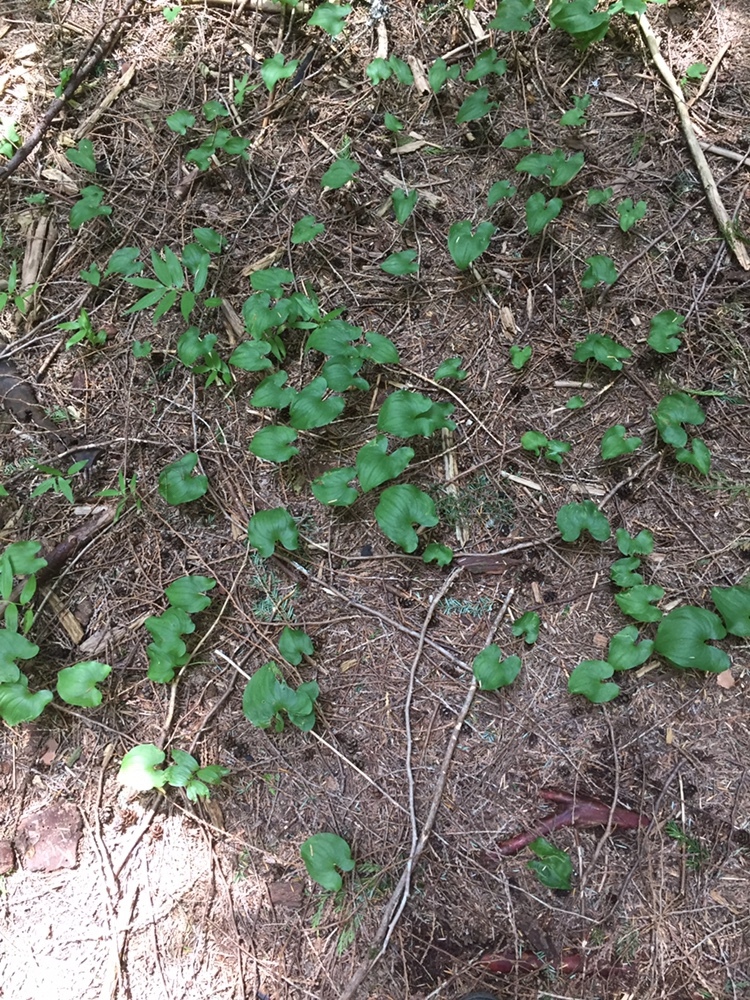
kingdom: Plantae
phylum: Tracheophyta
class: Liliopsida
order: Asparagales
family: Asparagaceae
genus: Maianthemum
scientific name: Maianthemum dilatatum
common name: False lily-of-the-valley
